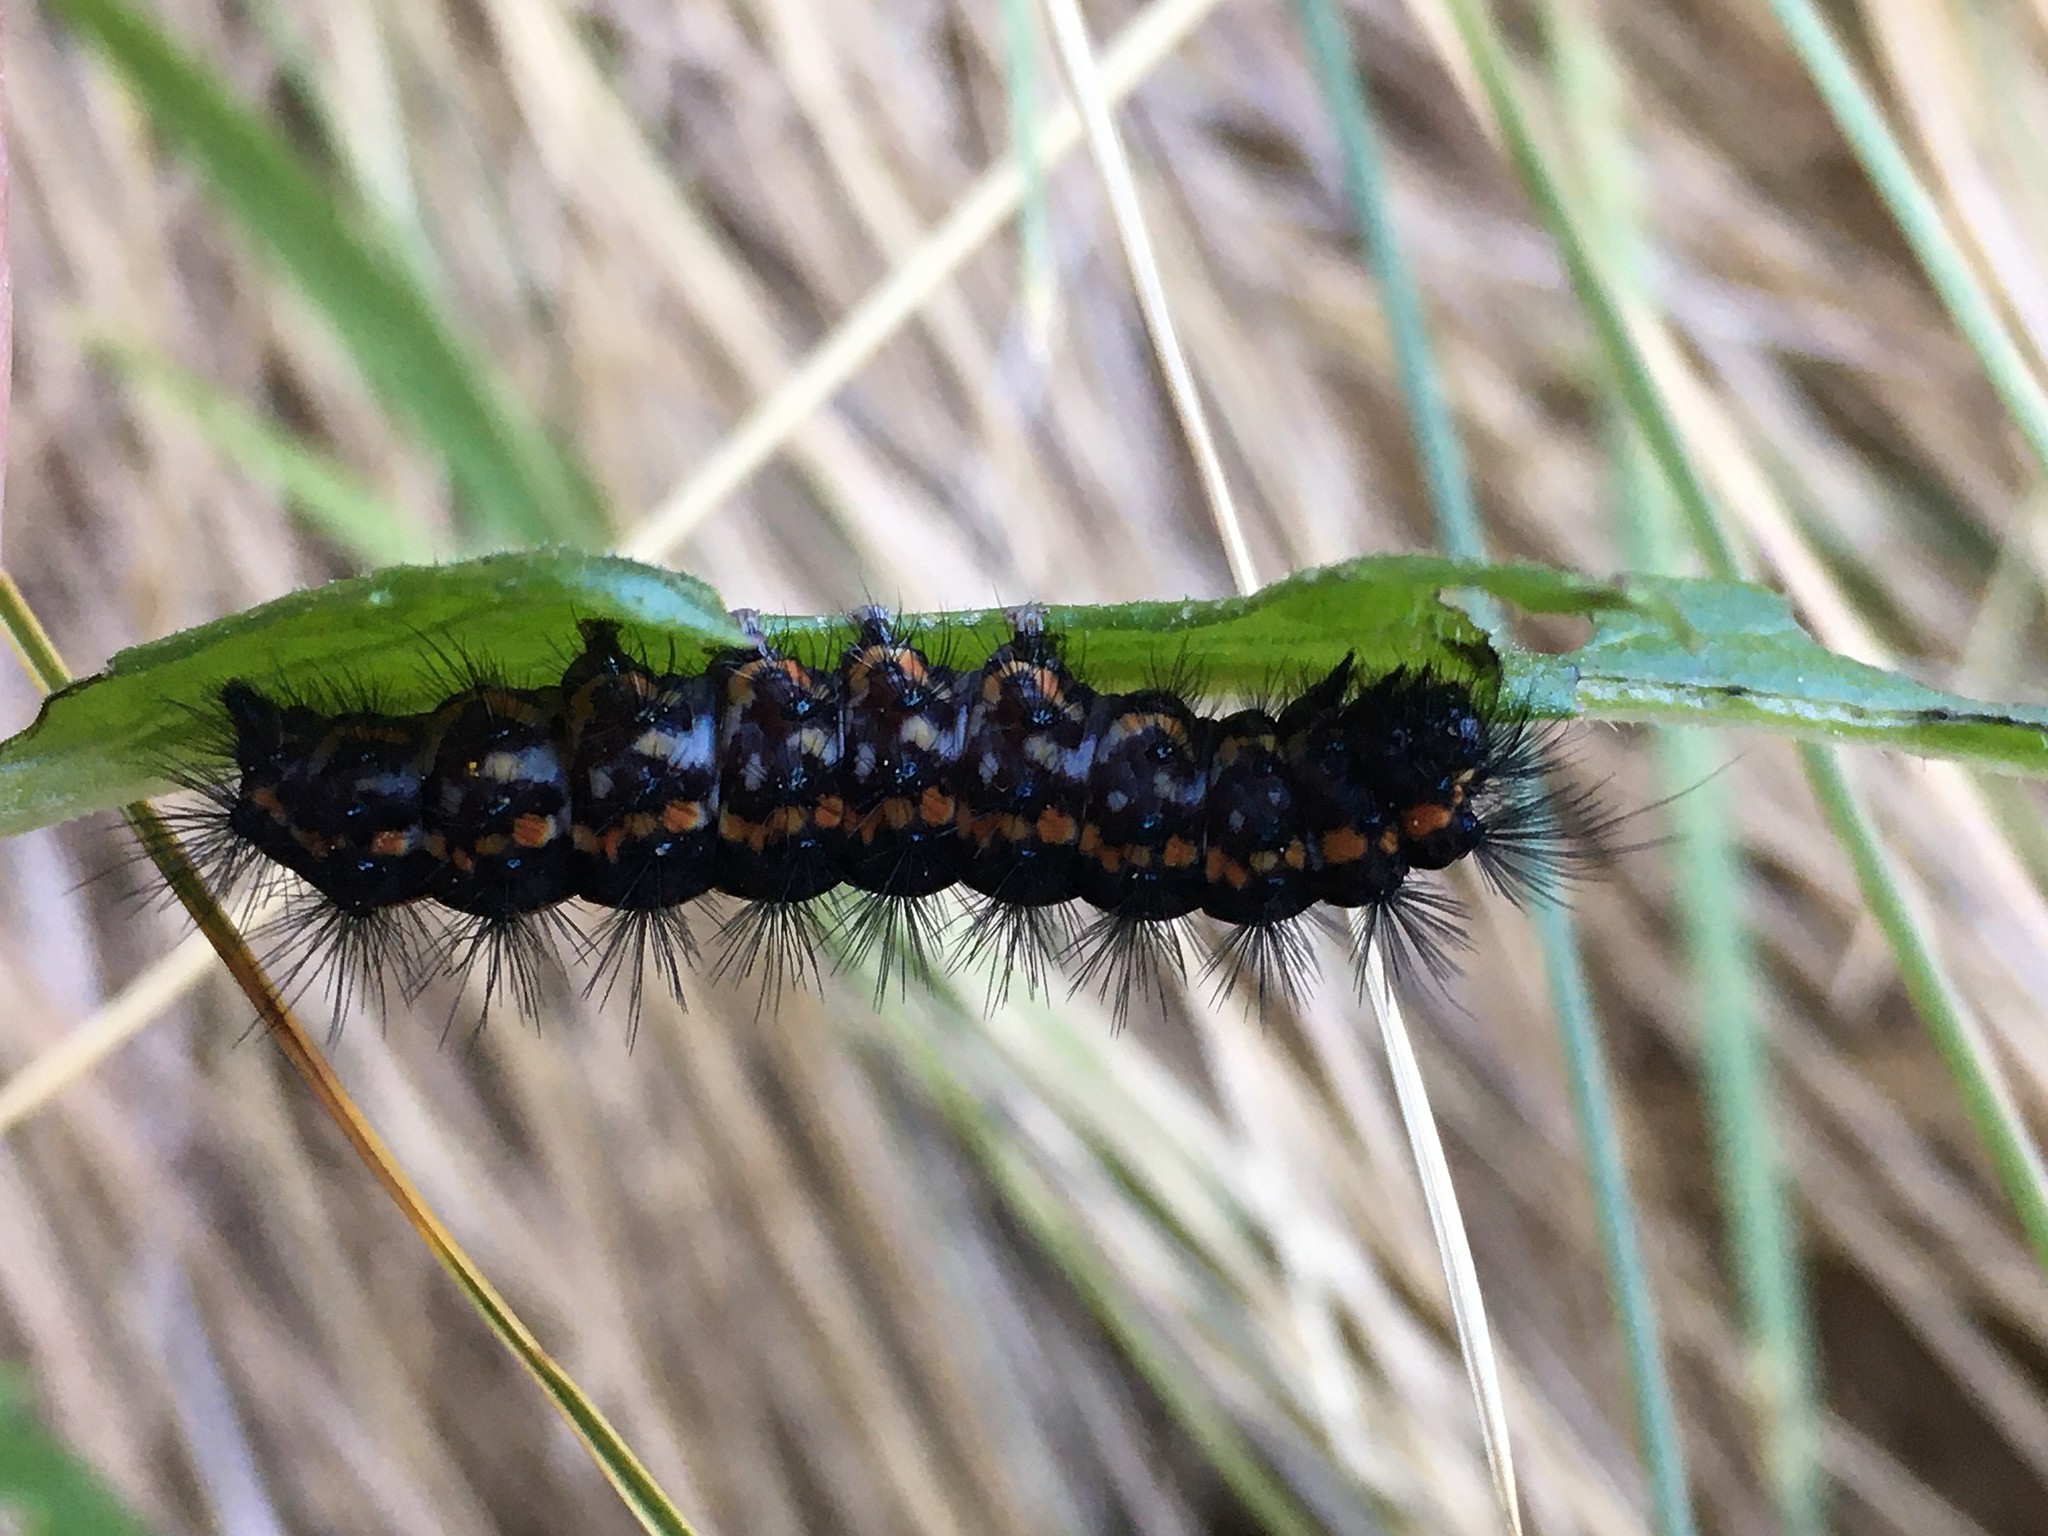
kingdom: Animalia
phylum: Arthropoda
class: Insecta
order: Lepidoptera
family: Erebidae
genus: Nyctemera
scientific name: Nyctemera annulatum
